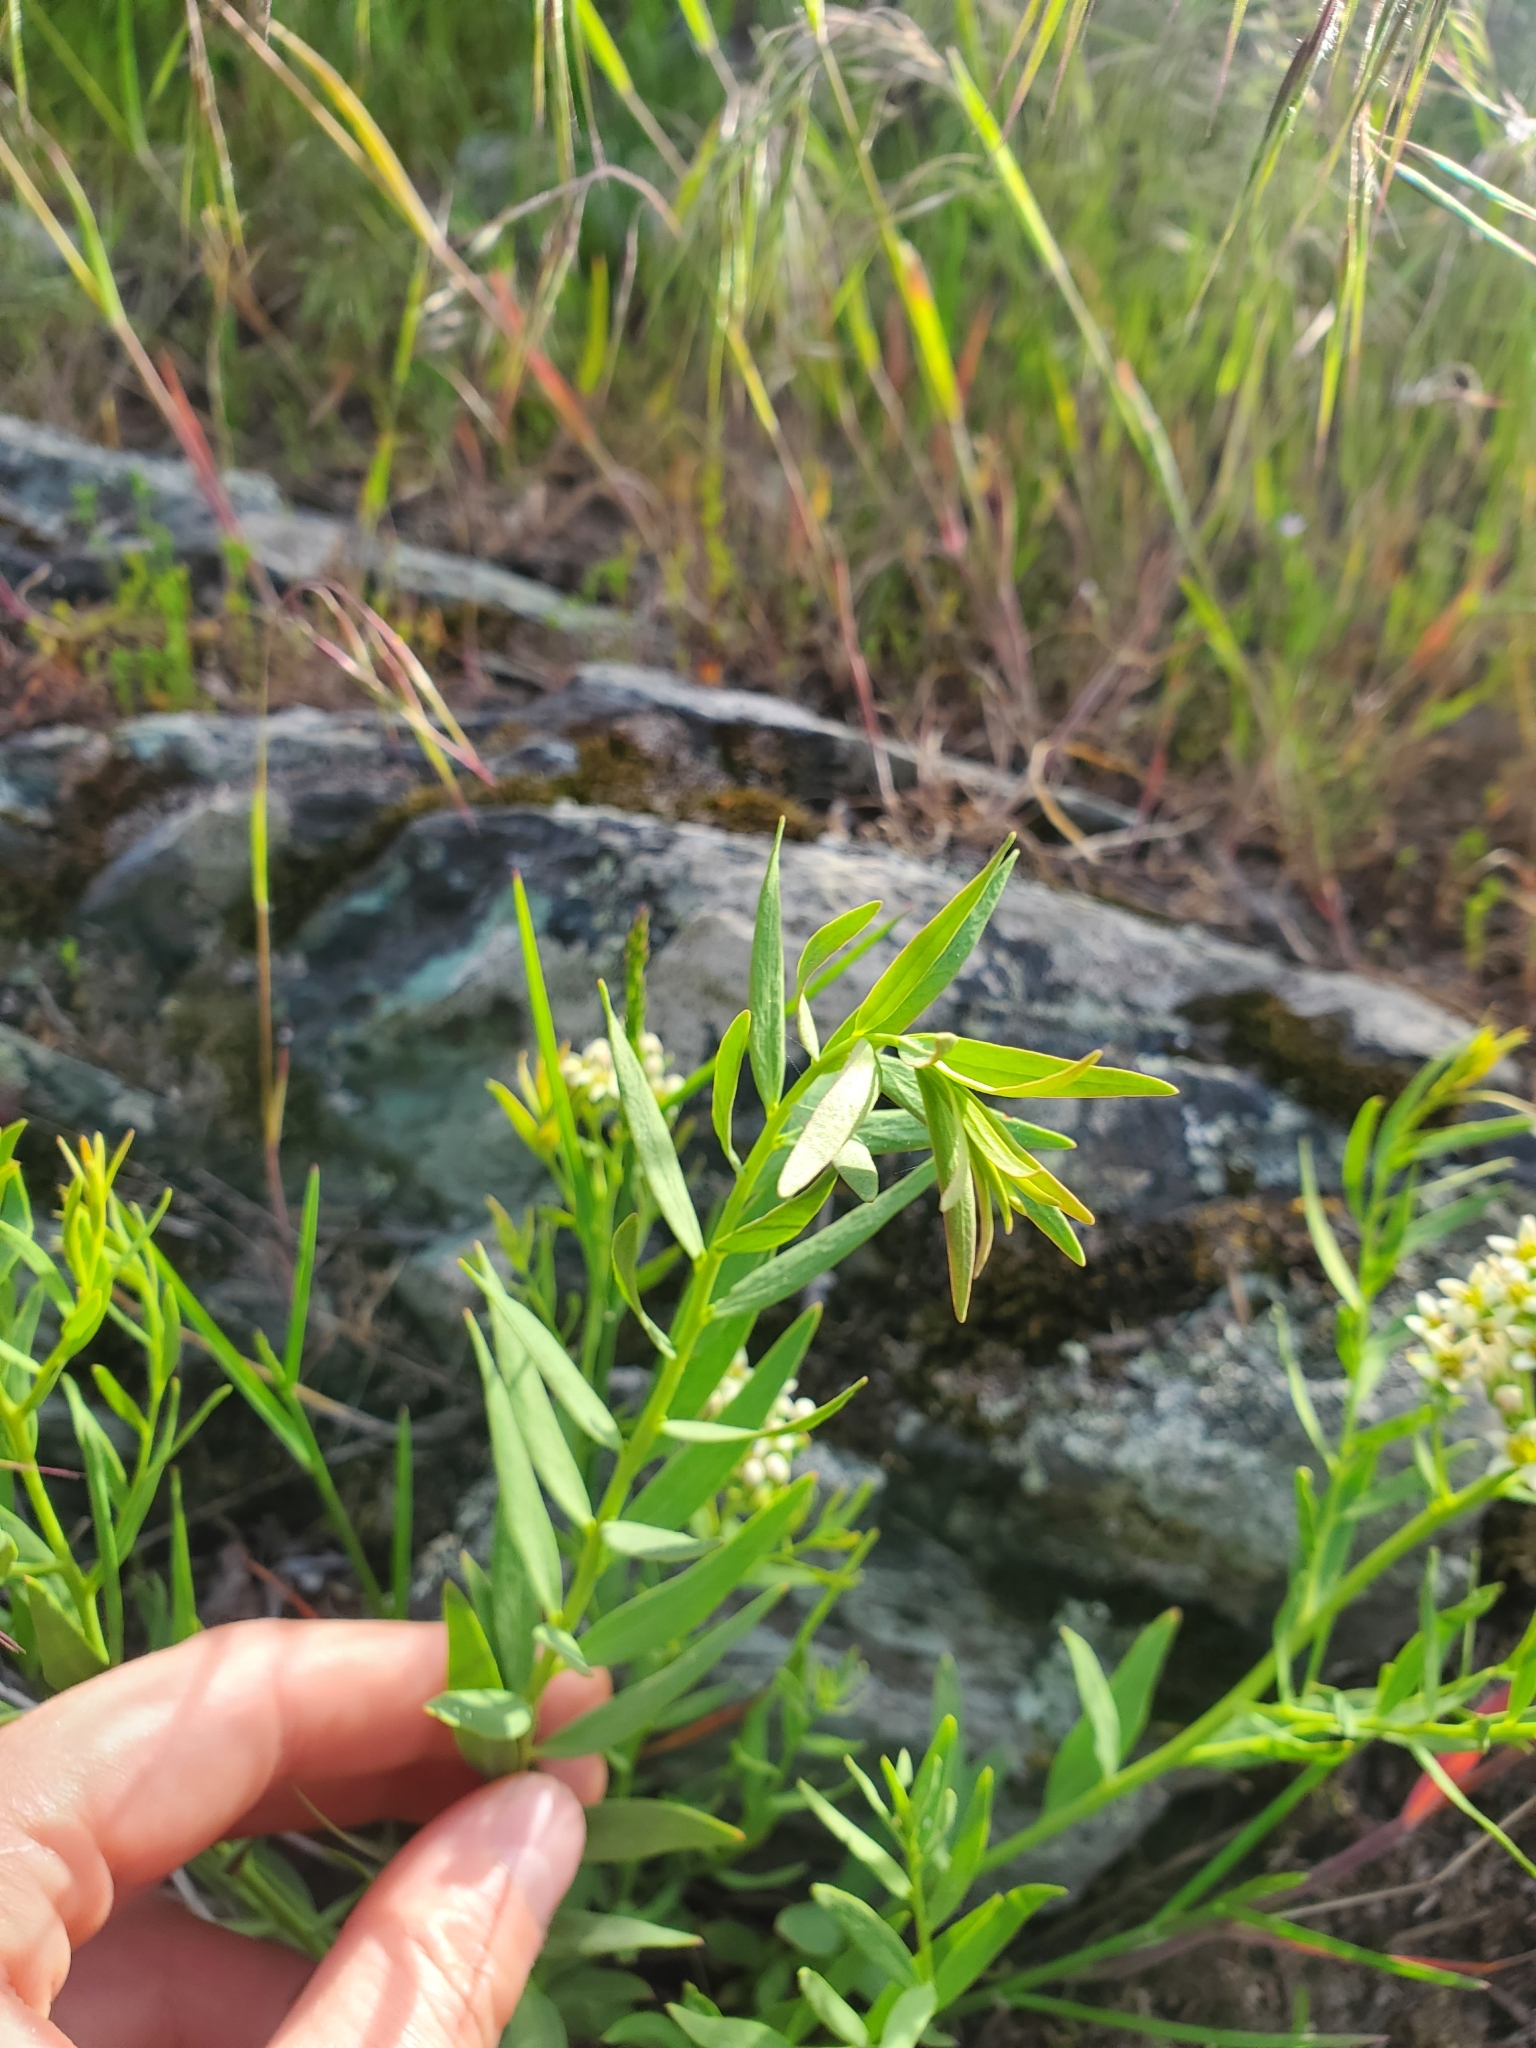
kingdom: Plantae
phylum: Tracheophyta
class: Magnoliopsida
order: Santalales
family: Comandraceae
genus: Comandra
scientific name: Comandra umbellata
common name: Bastard toadflax
